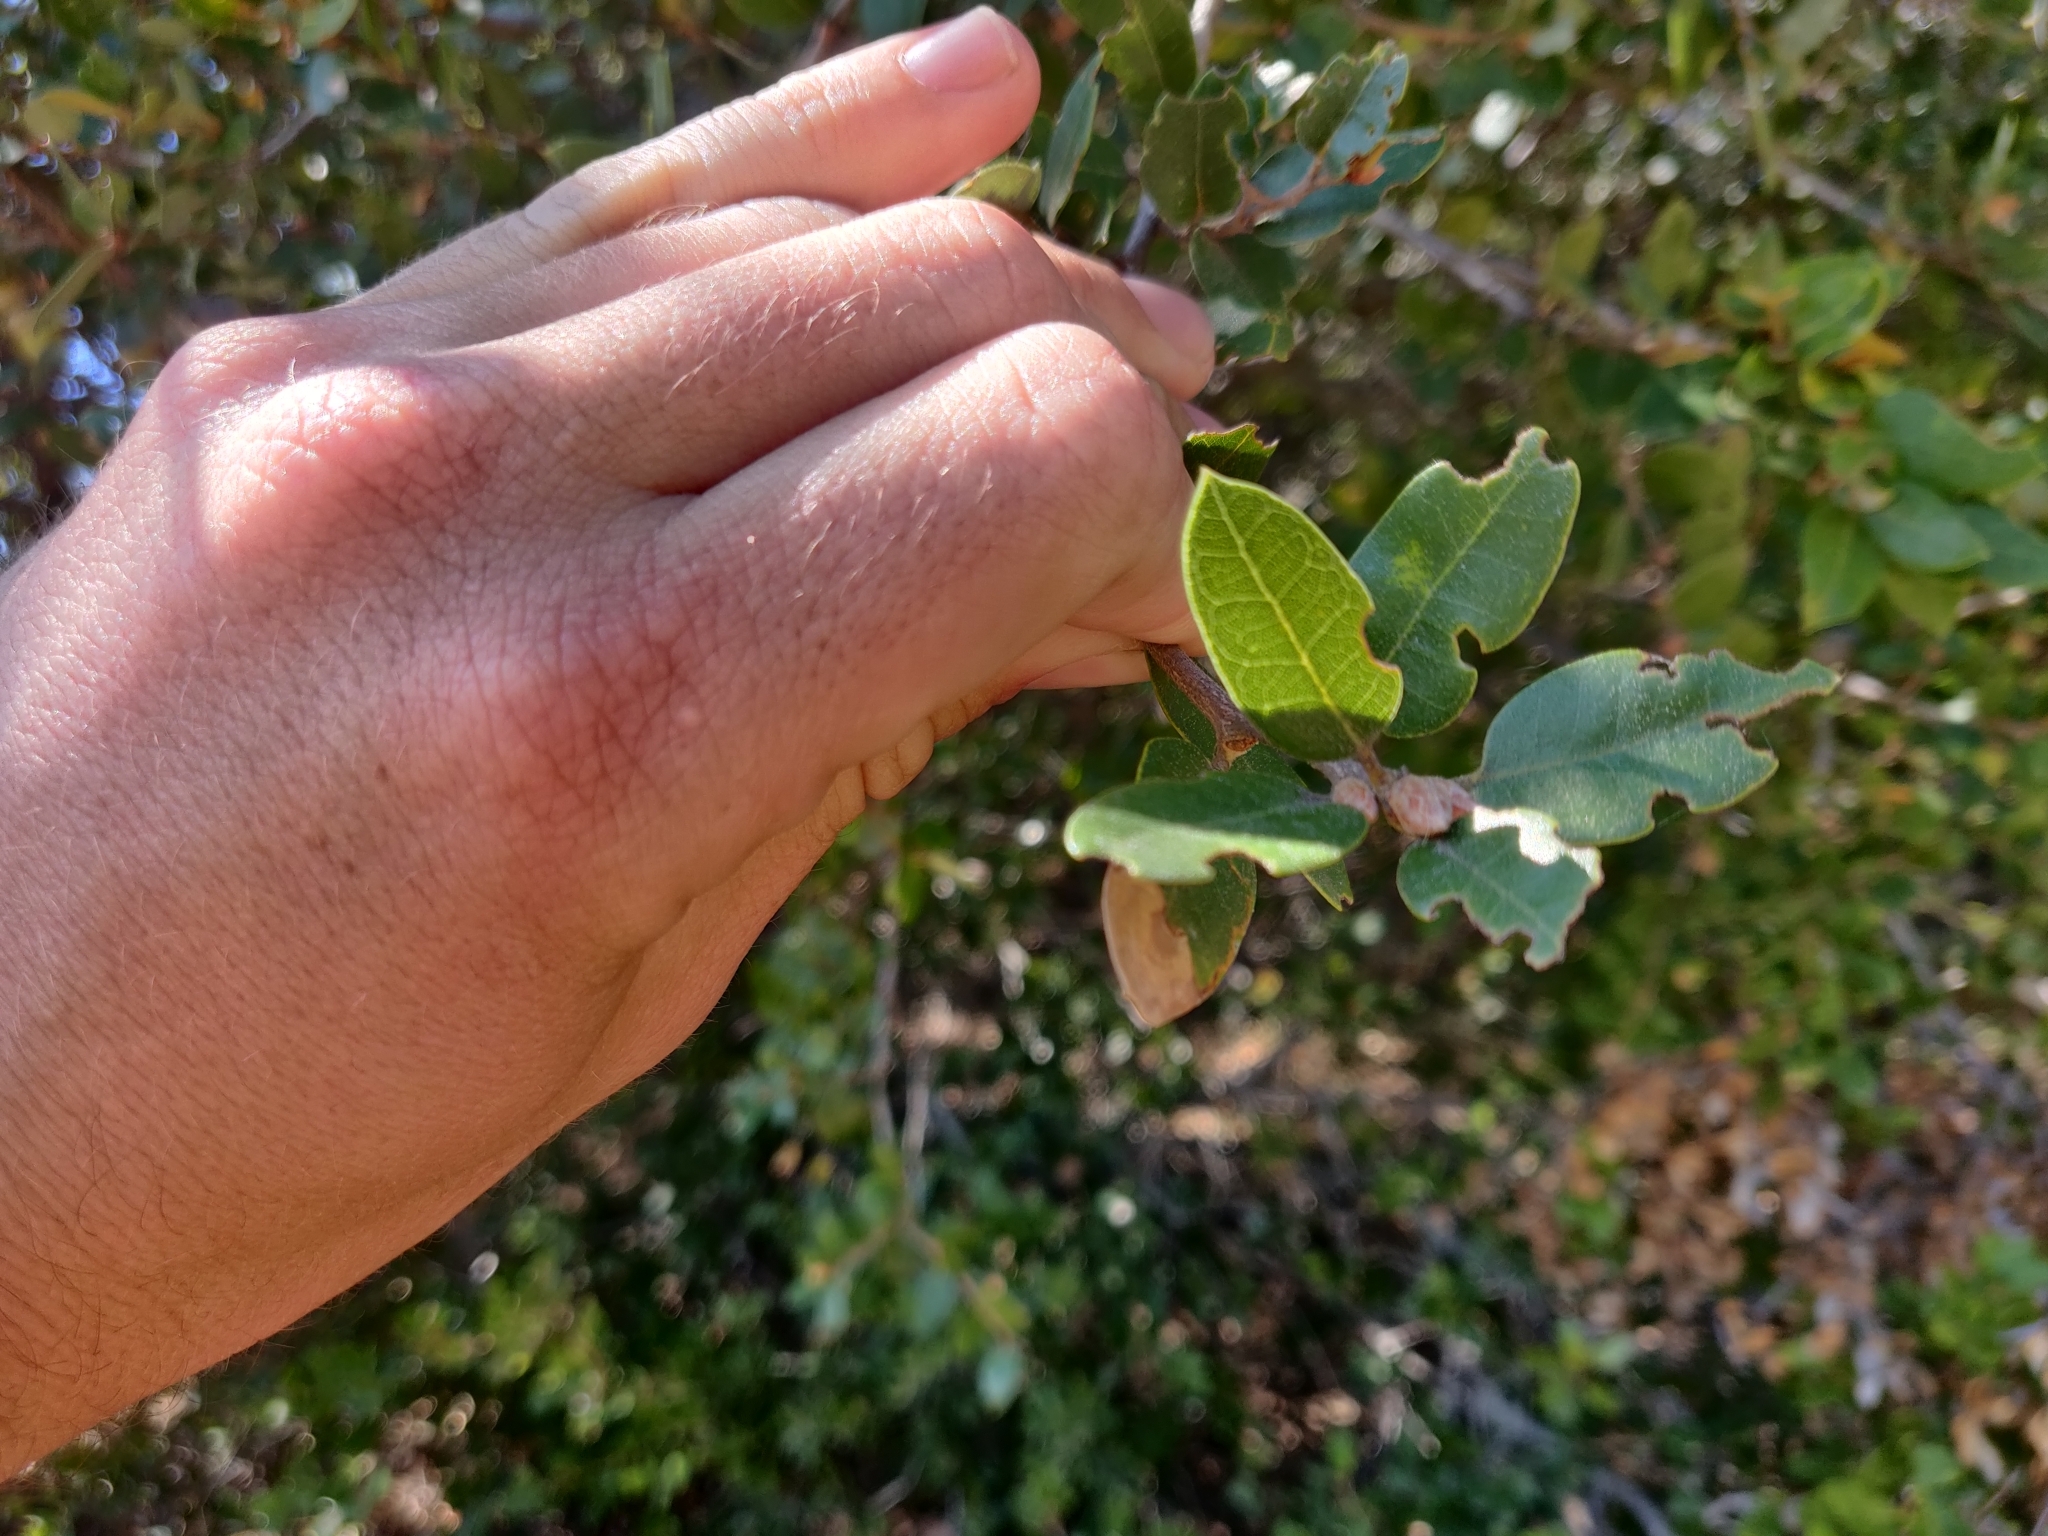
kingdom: Plantae
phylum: Tracheophyta
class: Magnoliopsida
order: Fagales
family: Fagaceae
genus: Quercus
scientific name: Quercus chrysolepis
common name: Canyon live oak
